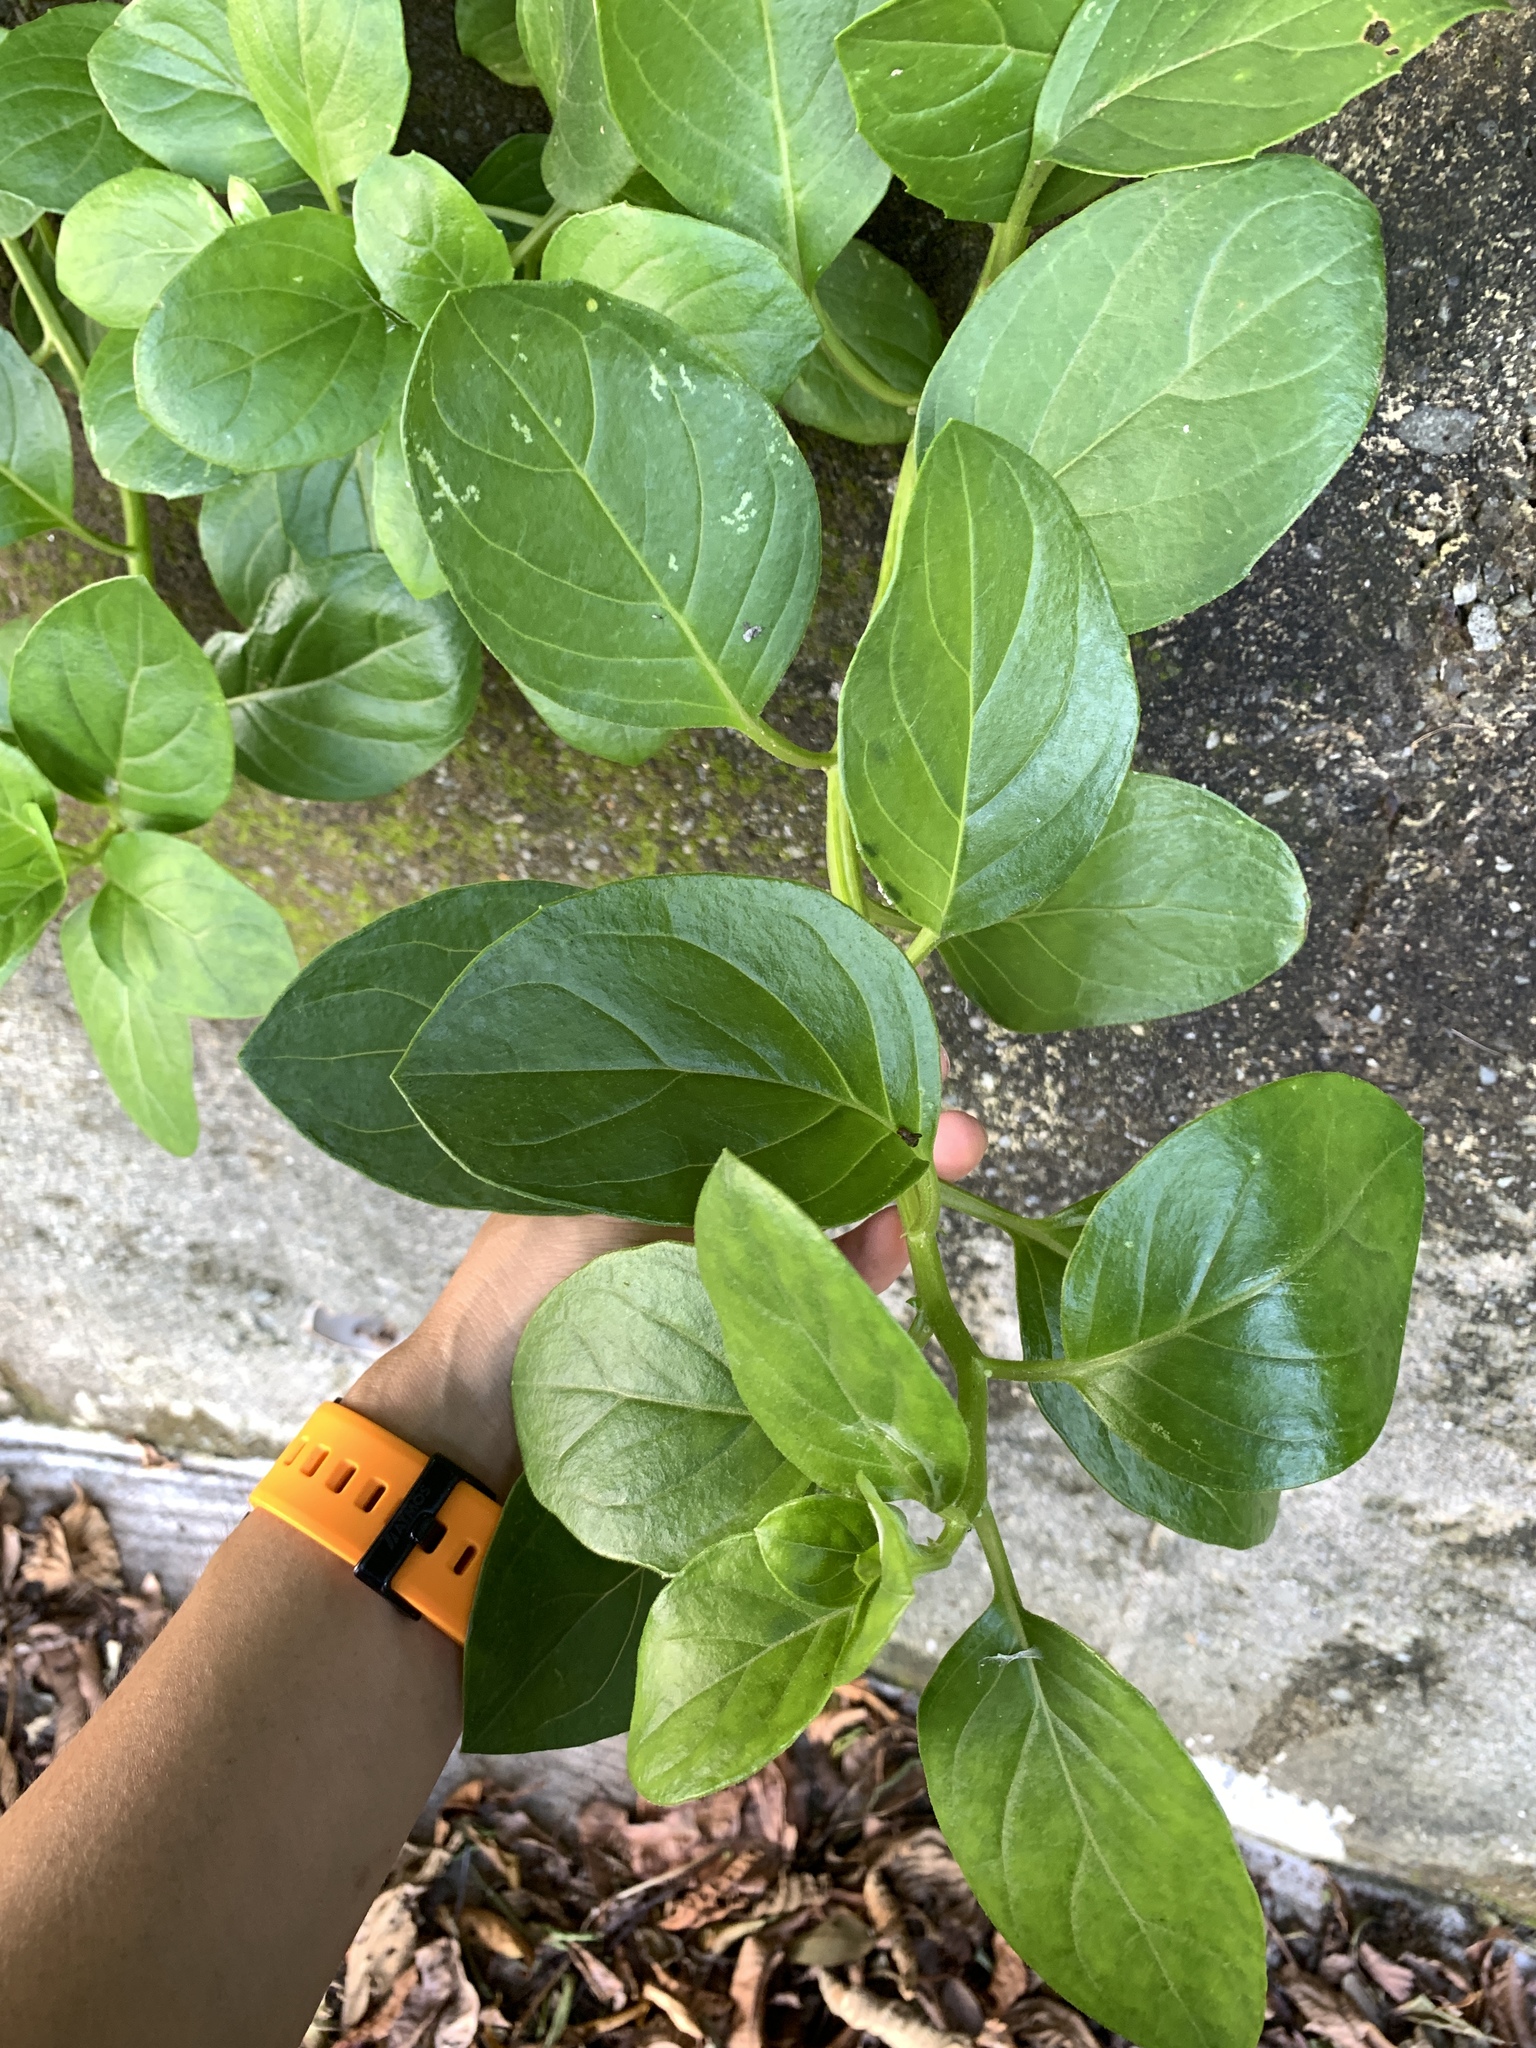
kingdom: Plantae
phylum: Tracheophyta
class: Magnoliopsida
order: Asterales
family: Asteraceae
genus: Gynura
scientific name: Gynura elliptica
